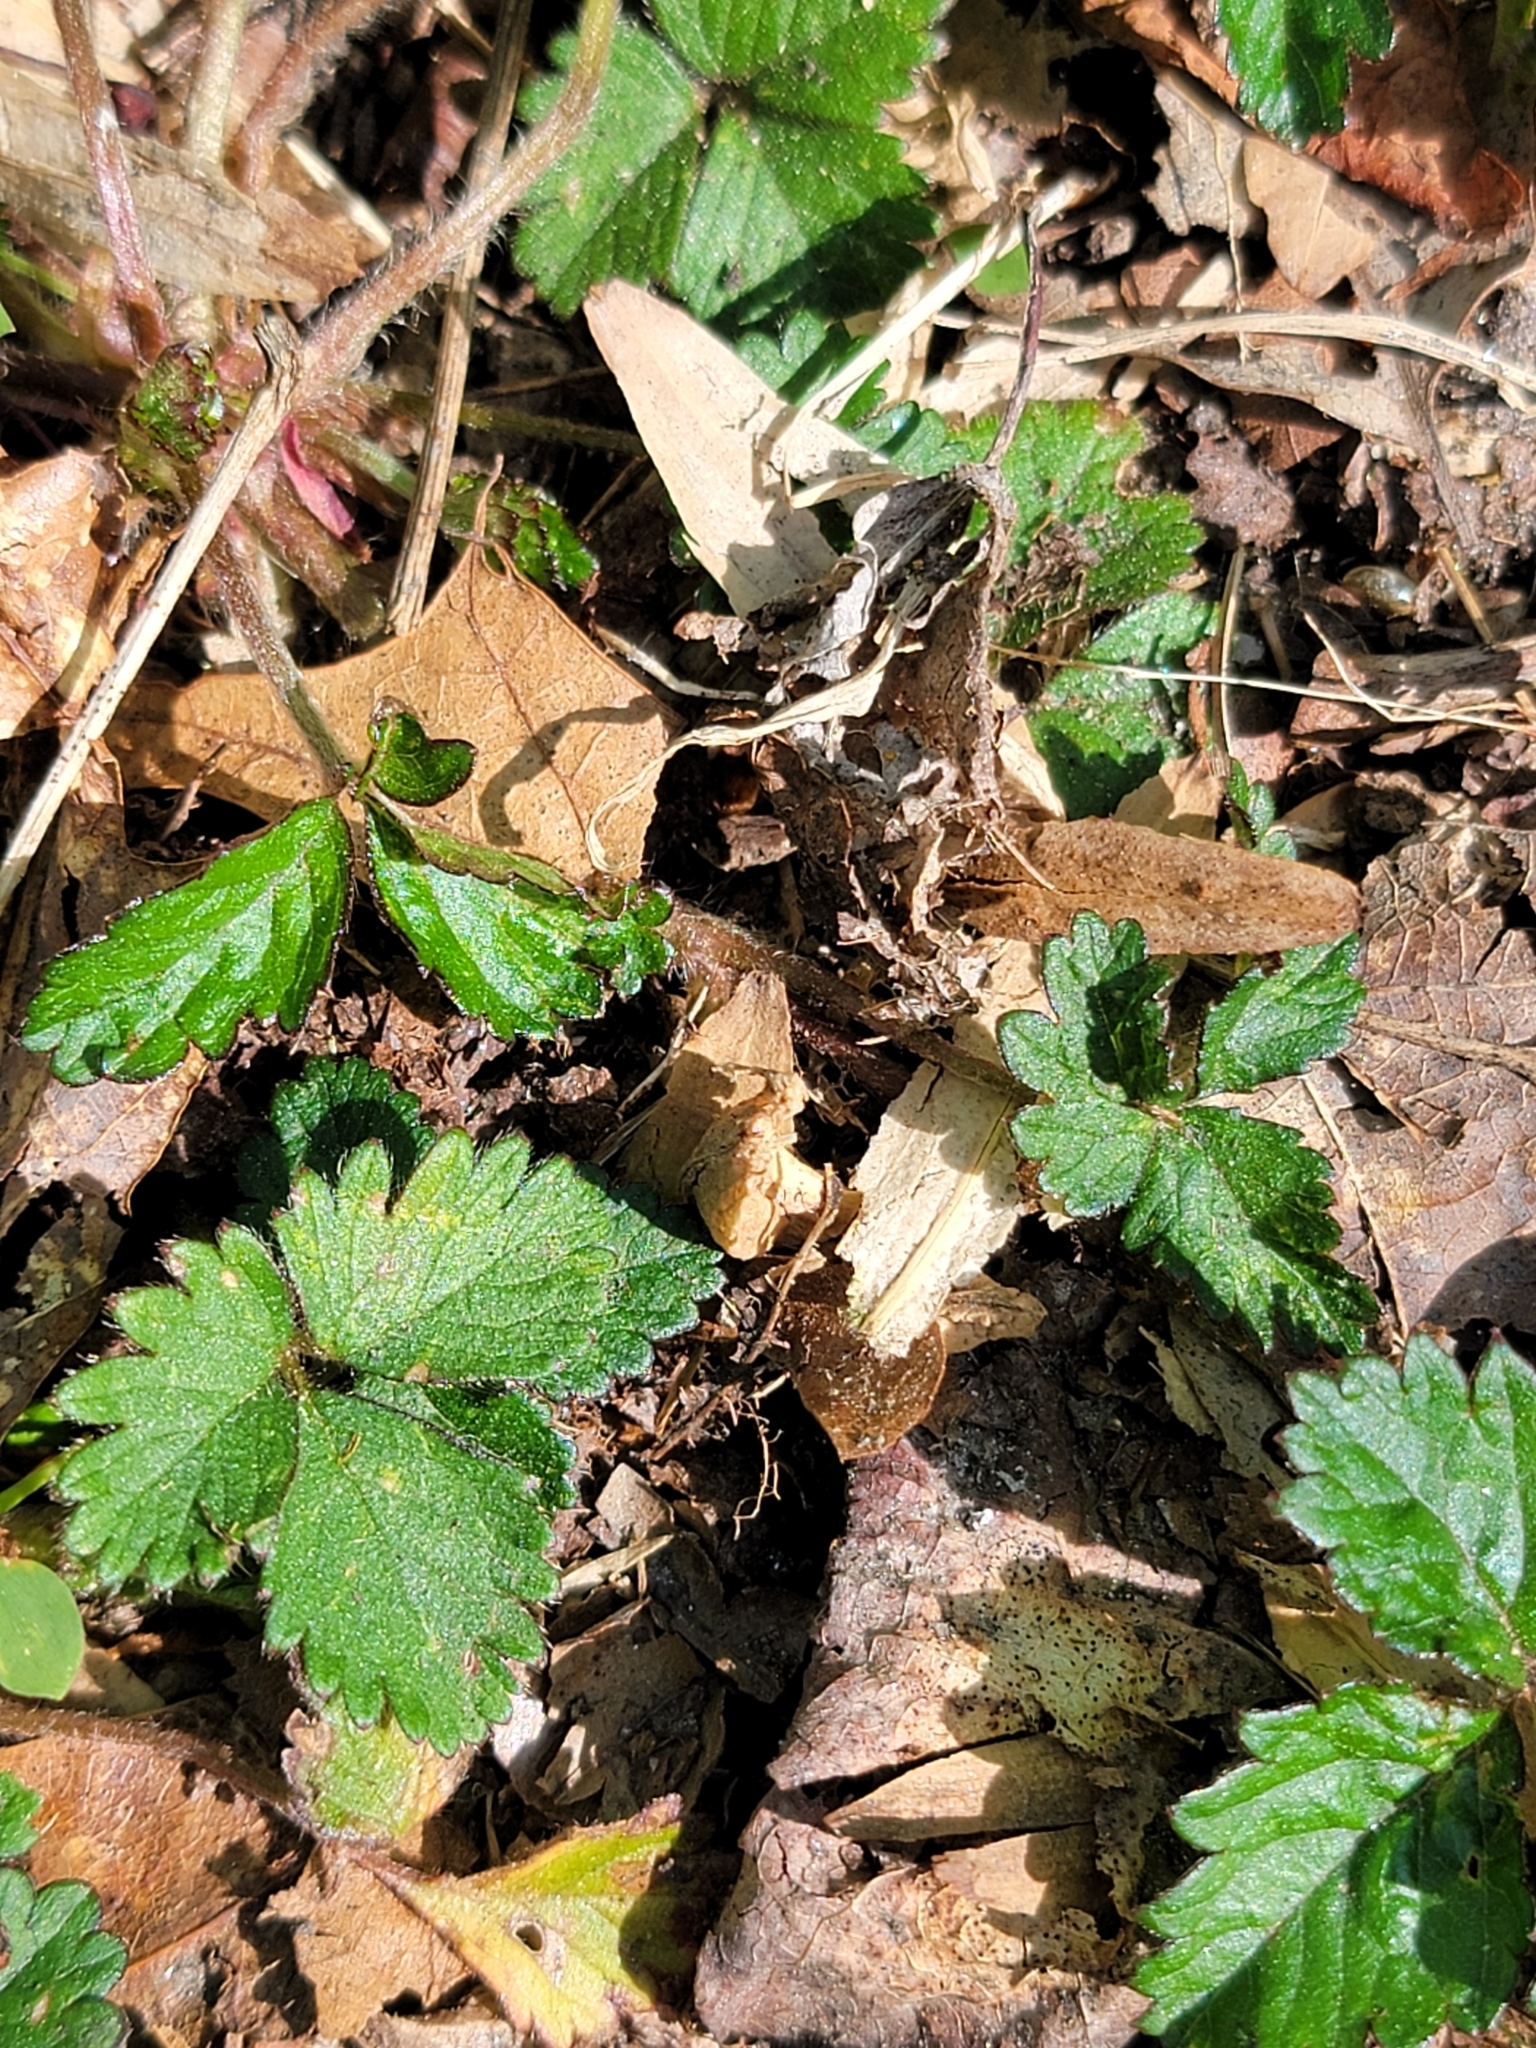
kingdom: Plantae
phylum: Tracheophyta
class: Magnoliopsida
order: Rosales
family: Rosaceae
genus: Potentilla
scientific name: Potentilla indica
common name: Yellow-flowered strawberry
